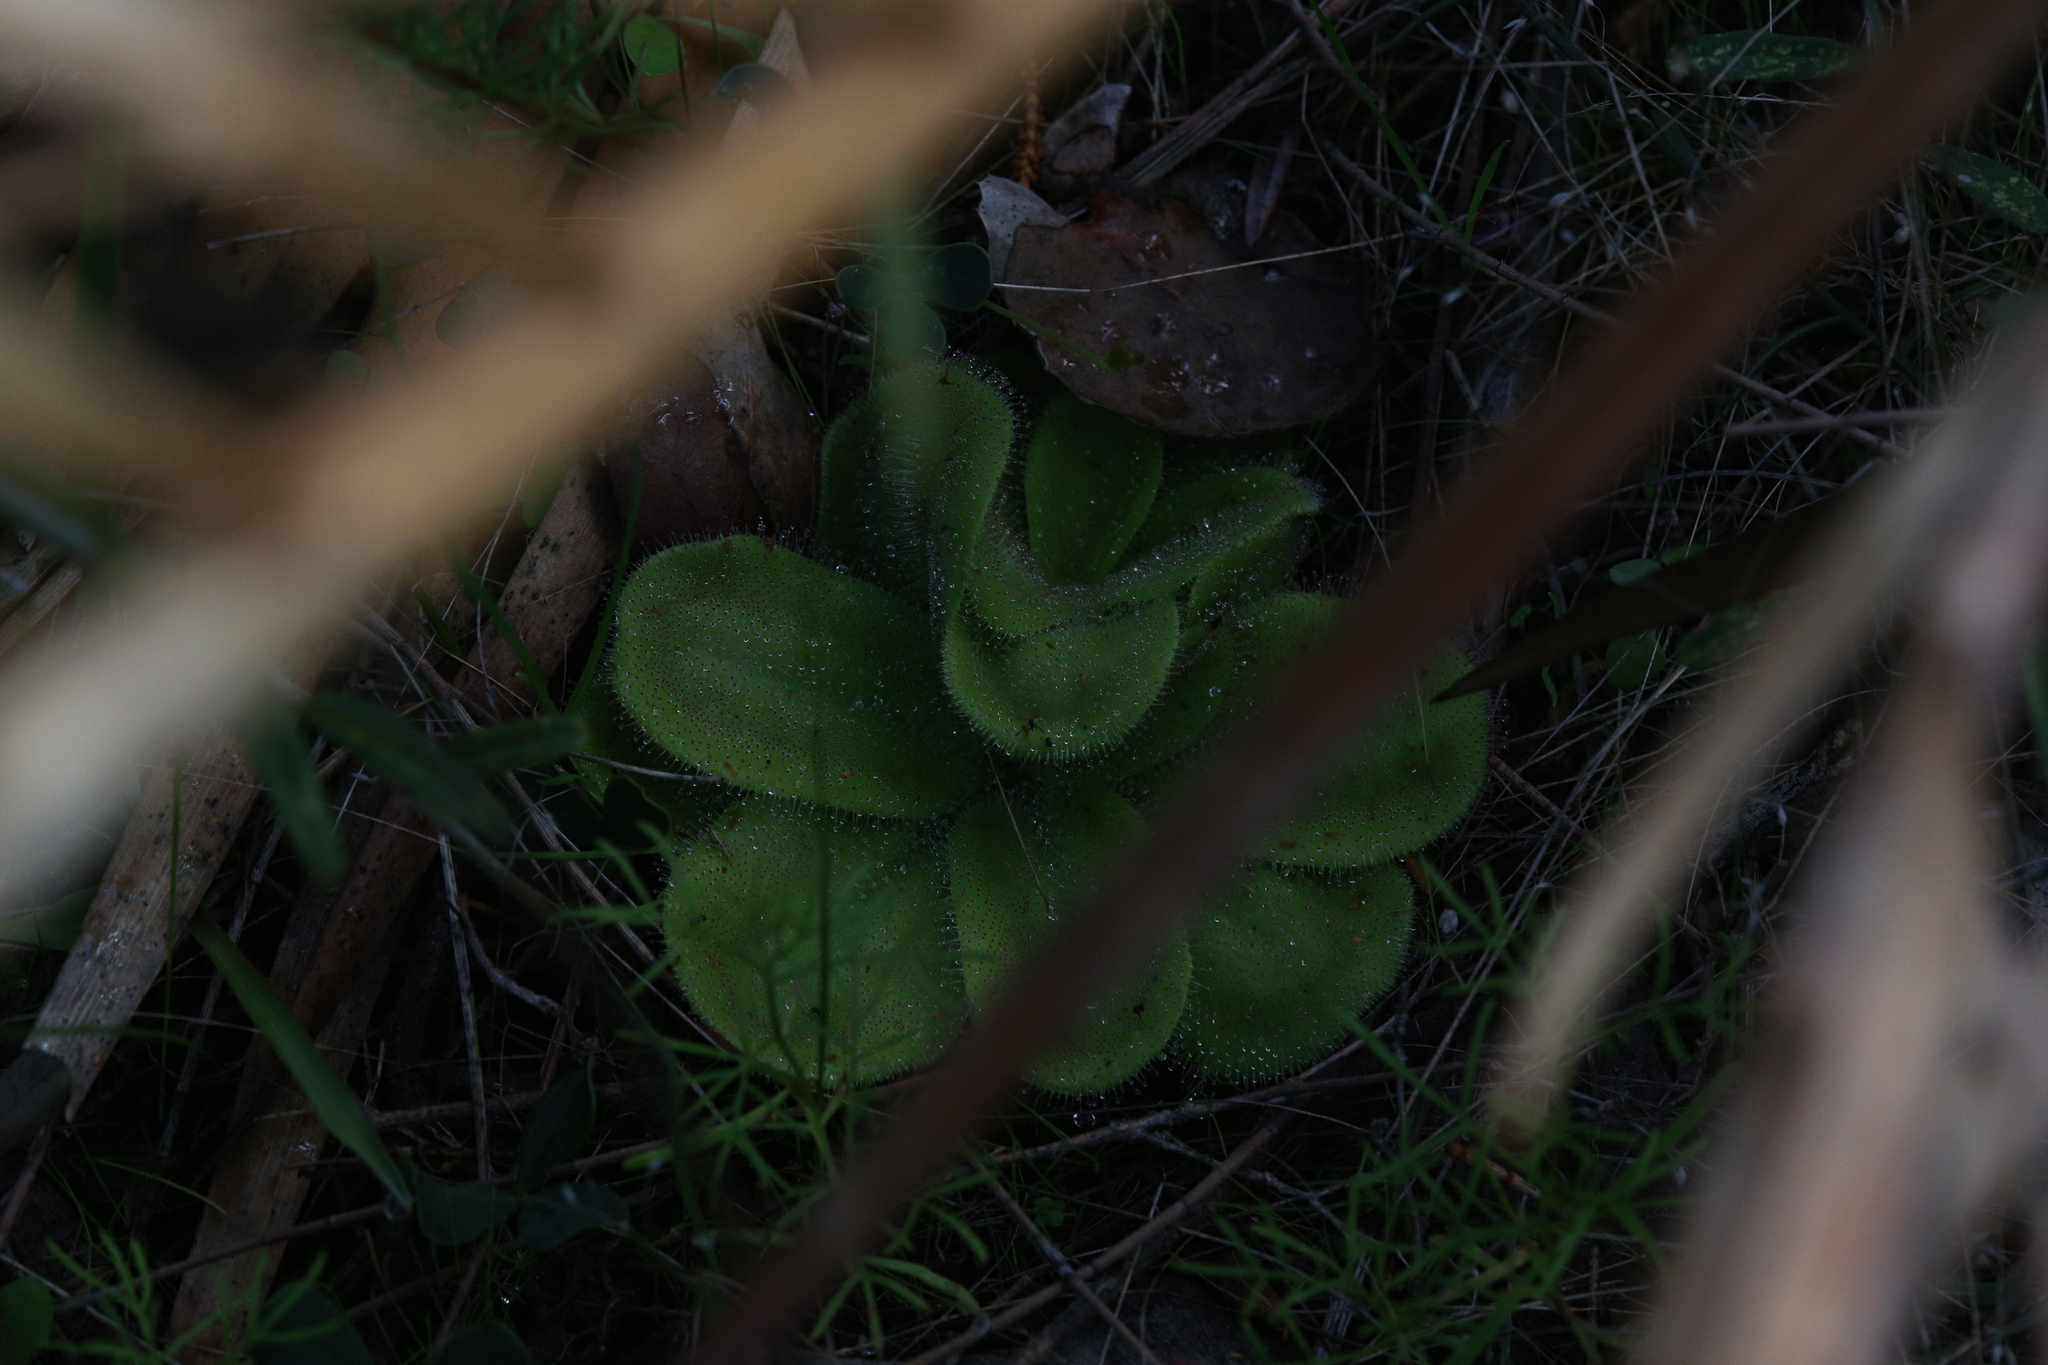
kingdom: Plantae
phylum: Tracheophyta
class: Magnoliopsida
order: Caryophyllales
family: Droseraceae
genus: Drosera
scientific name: Drosera erythrorhiza
